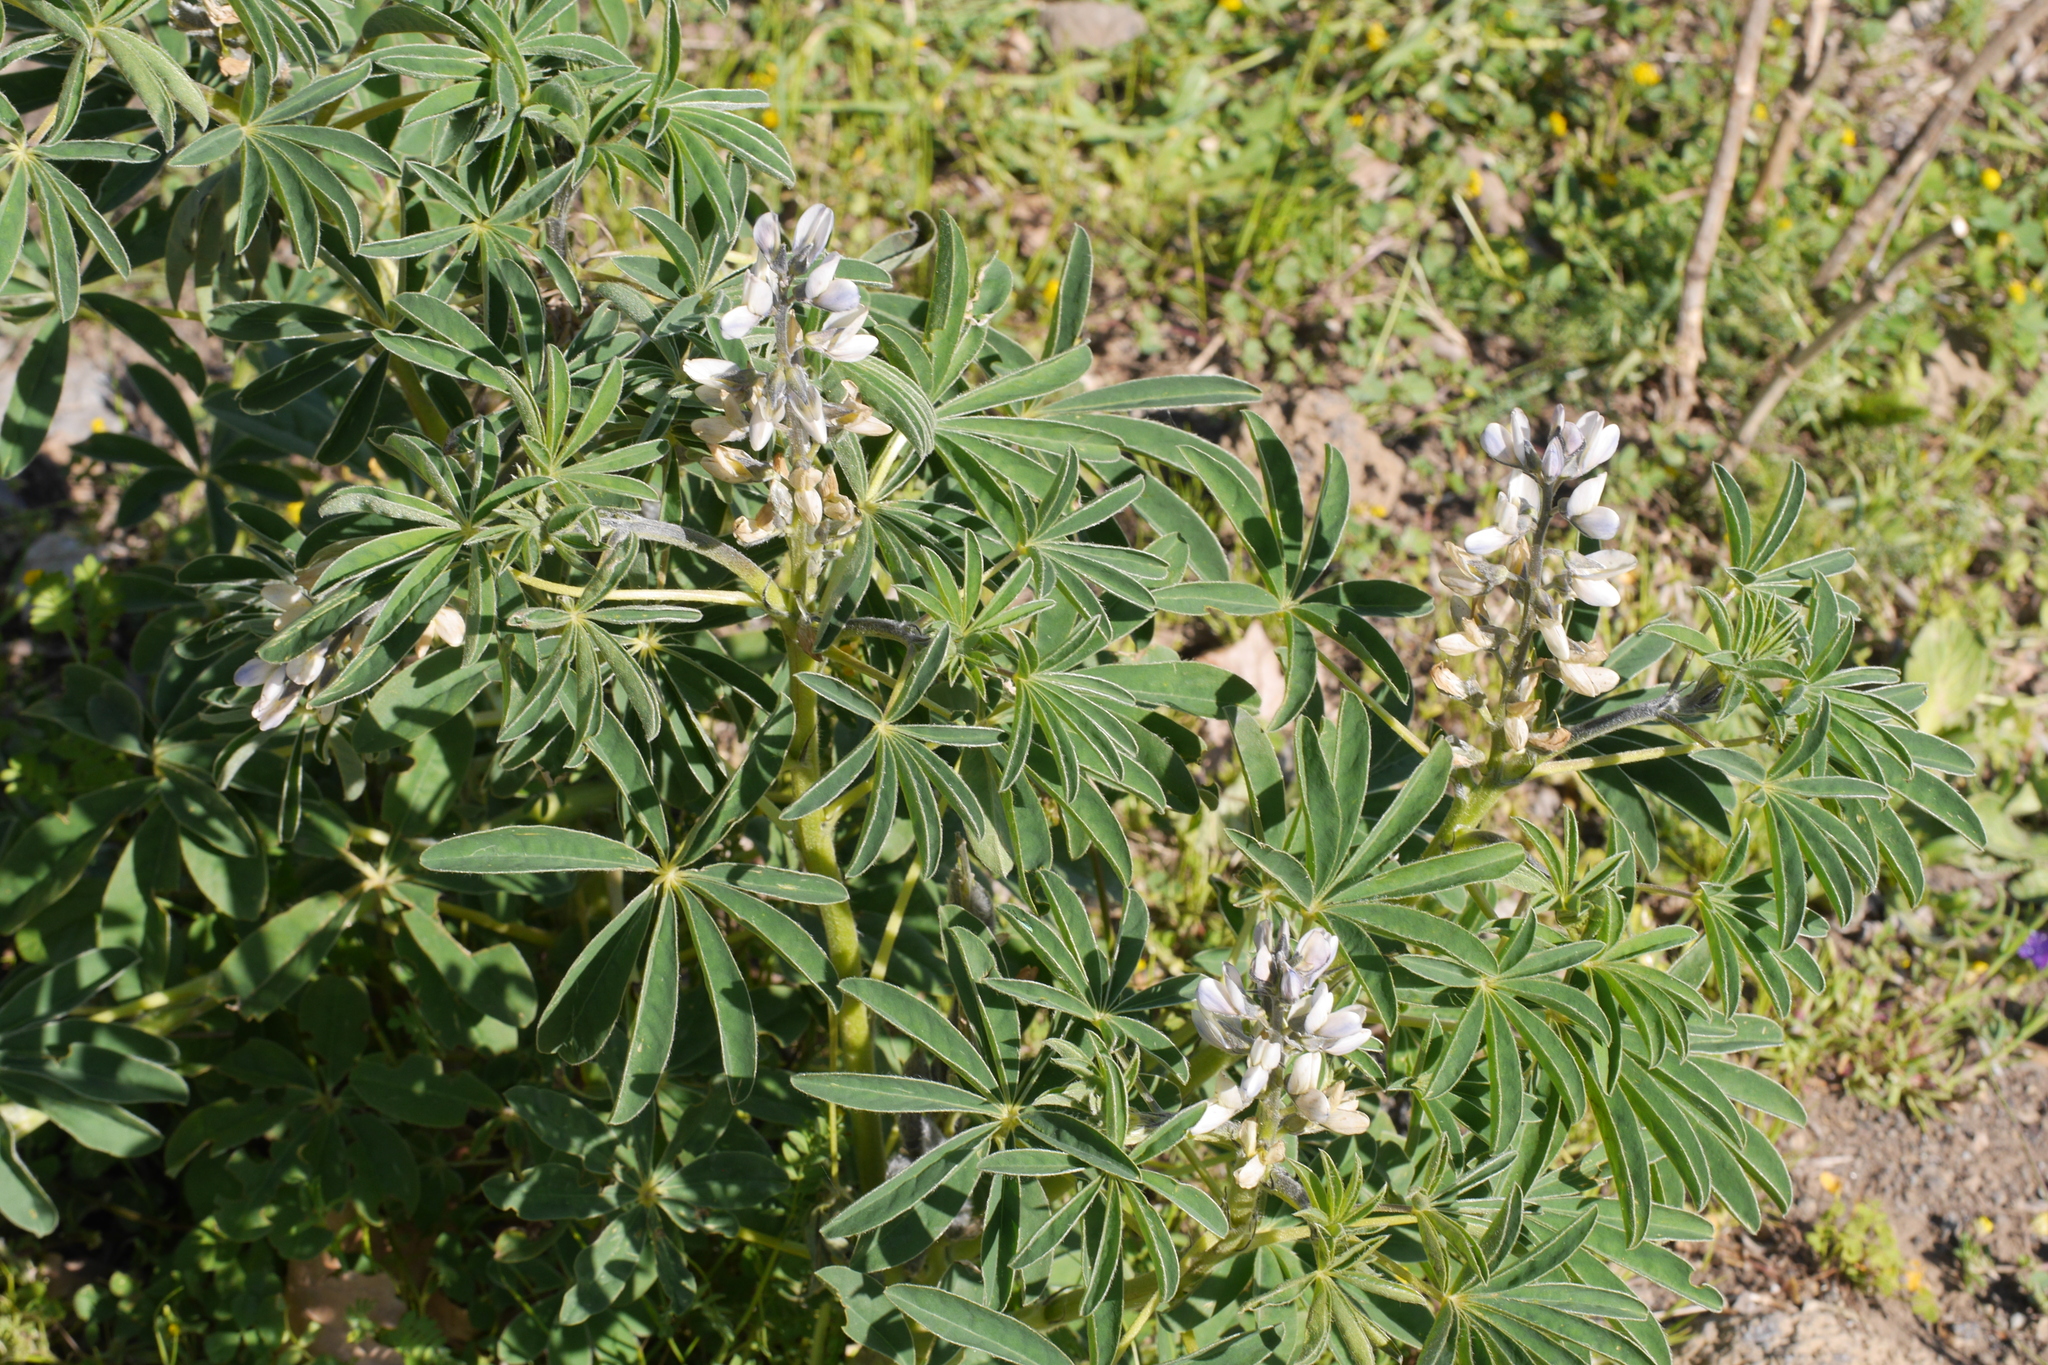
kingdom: Plantae
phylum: Tracheophyta
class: Magnoliopsida
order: Fabales
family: Fabaceae
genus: Lupinus
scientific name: Lupinus albus
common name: White lupin
